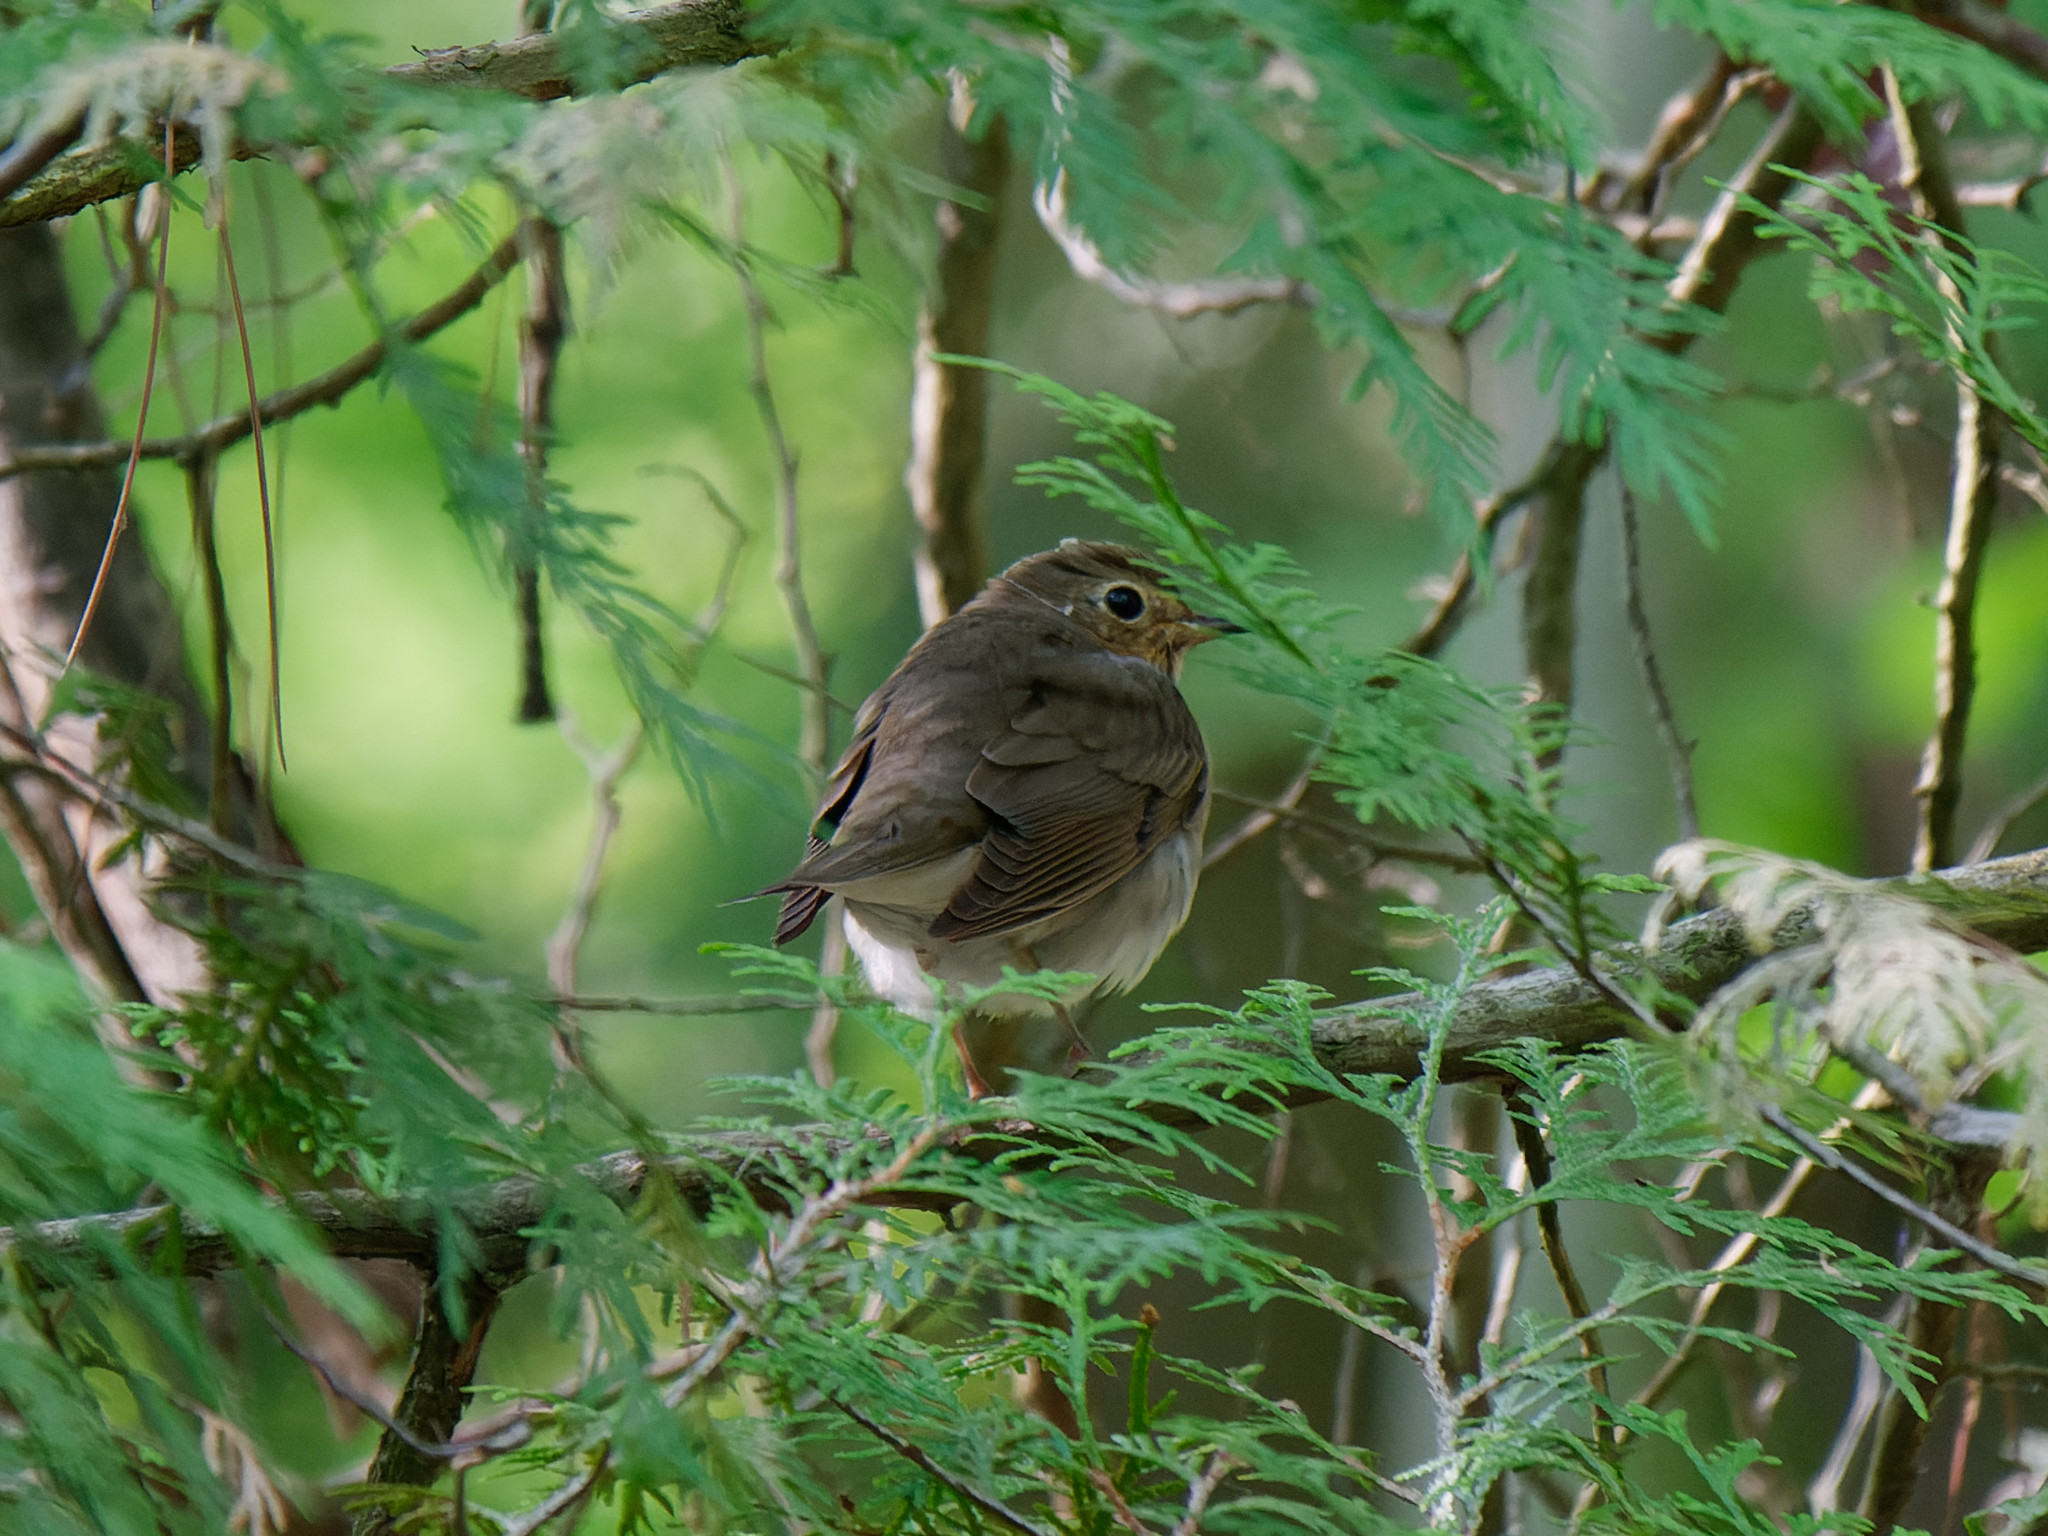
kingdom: Animalia
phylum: Chordata
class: Aves
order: Passeriformes
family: Turdidae
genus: Catharus
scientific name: Catharus ustulatus
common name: Swainson's thrush
